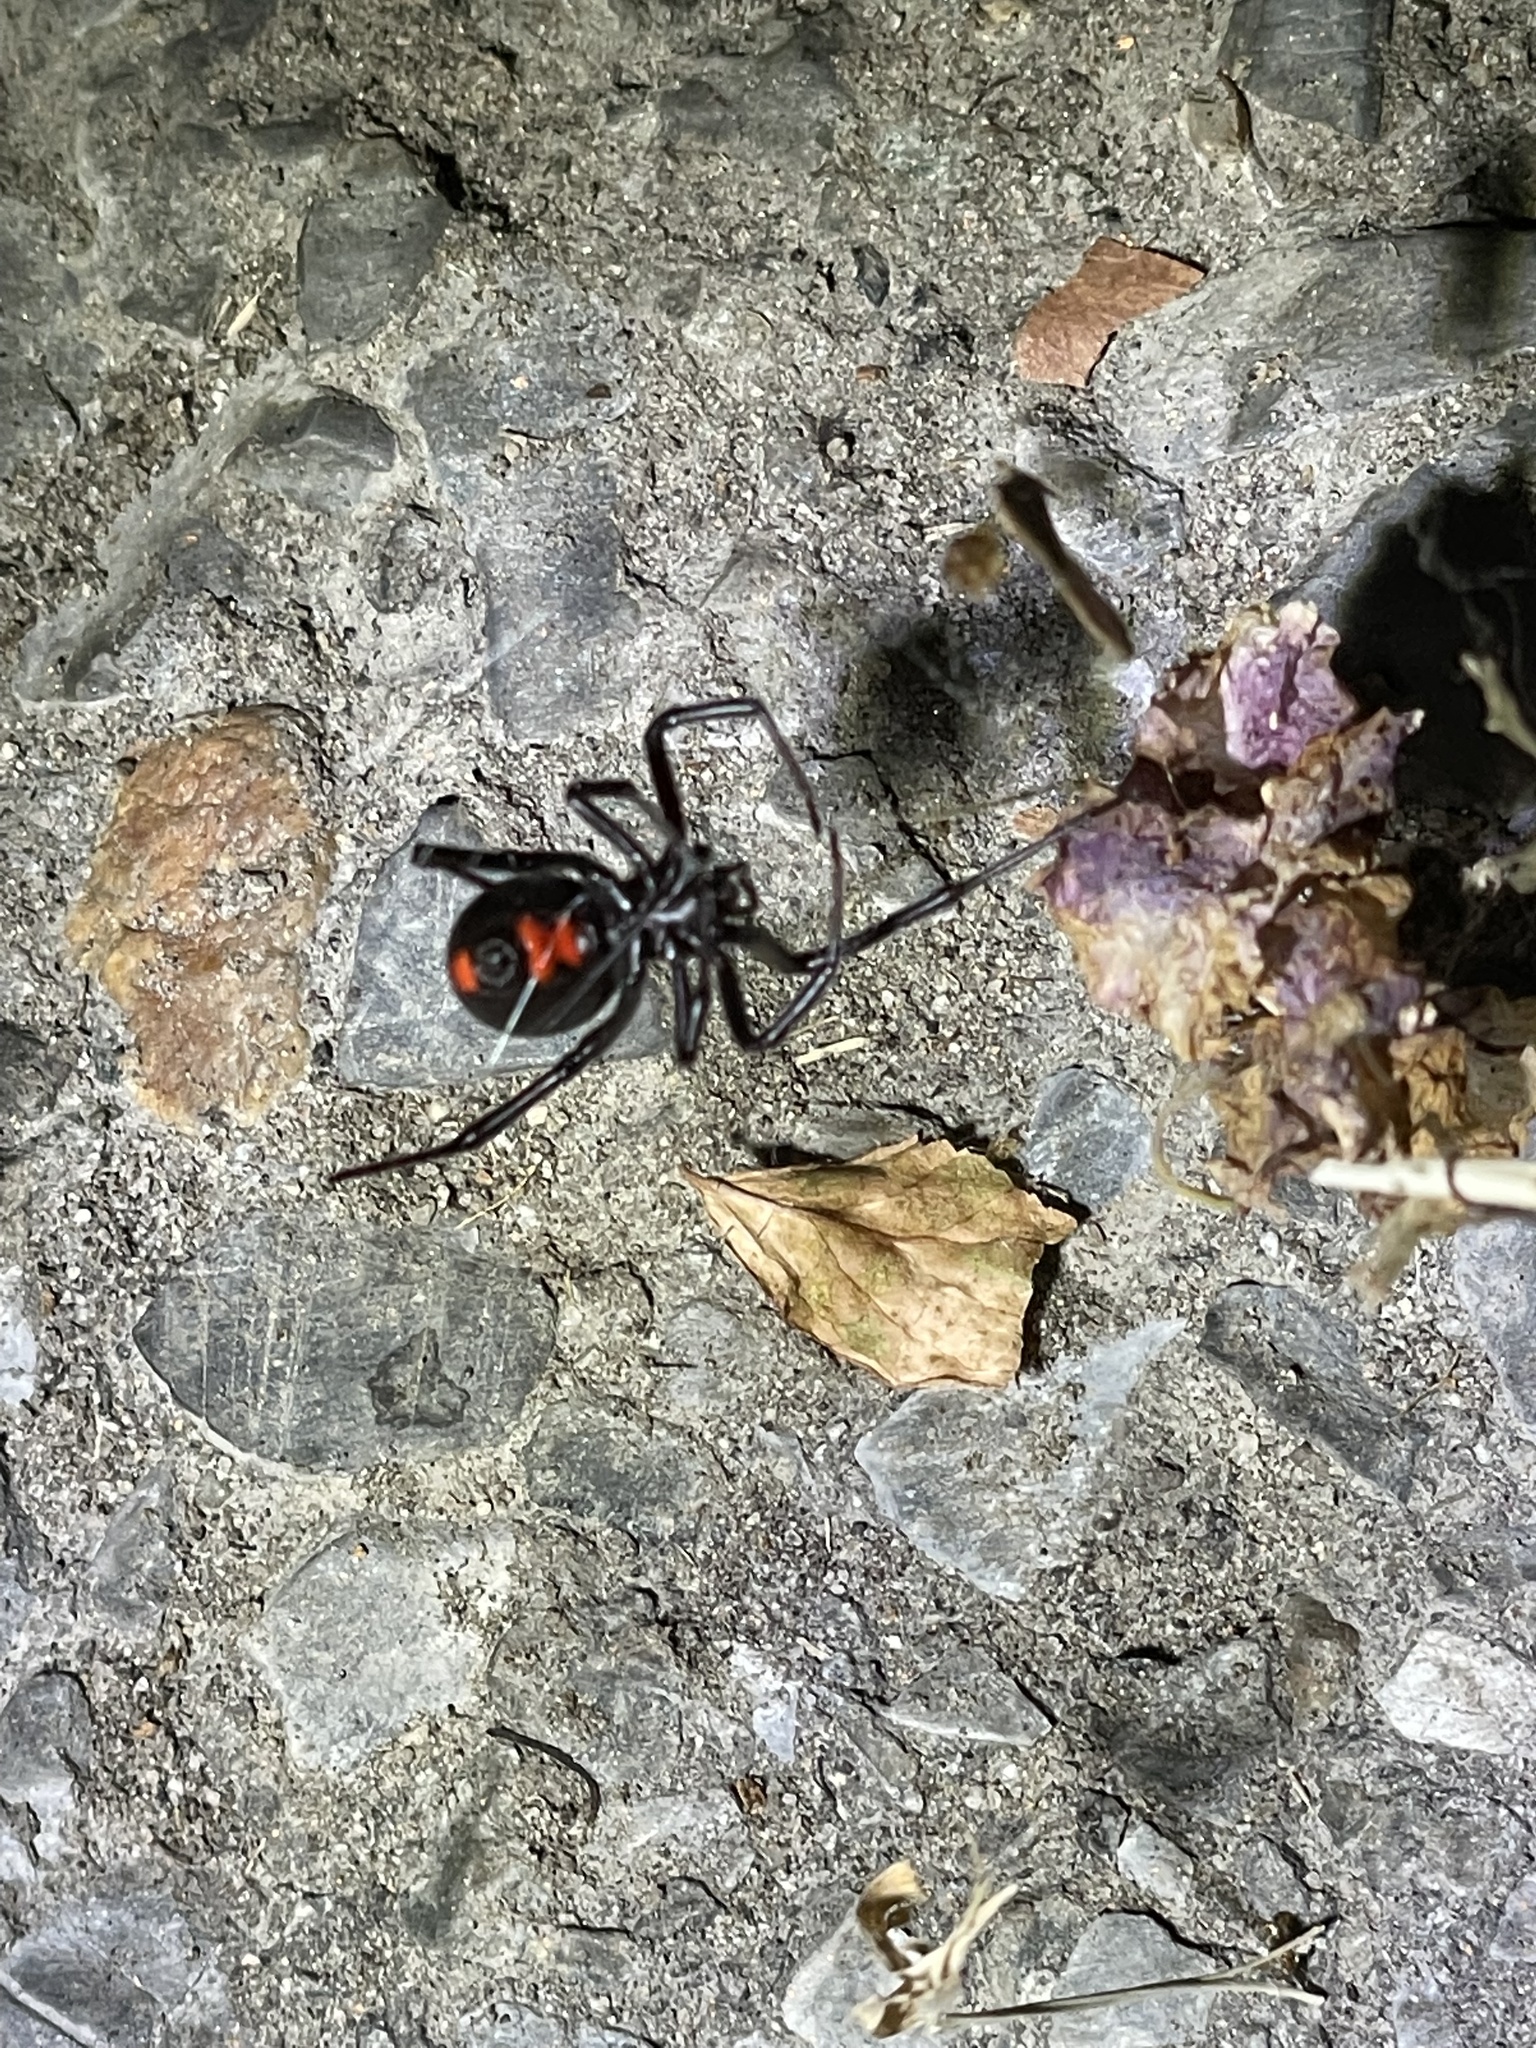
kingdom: Animalia
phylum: Arthropoda
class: Arachnida
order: Araneae
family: Theridiidae
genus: Latrodectus
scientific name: Latrodectus mactans
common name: Cobweb spiders
